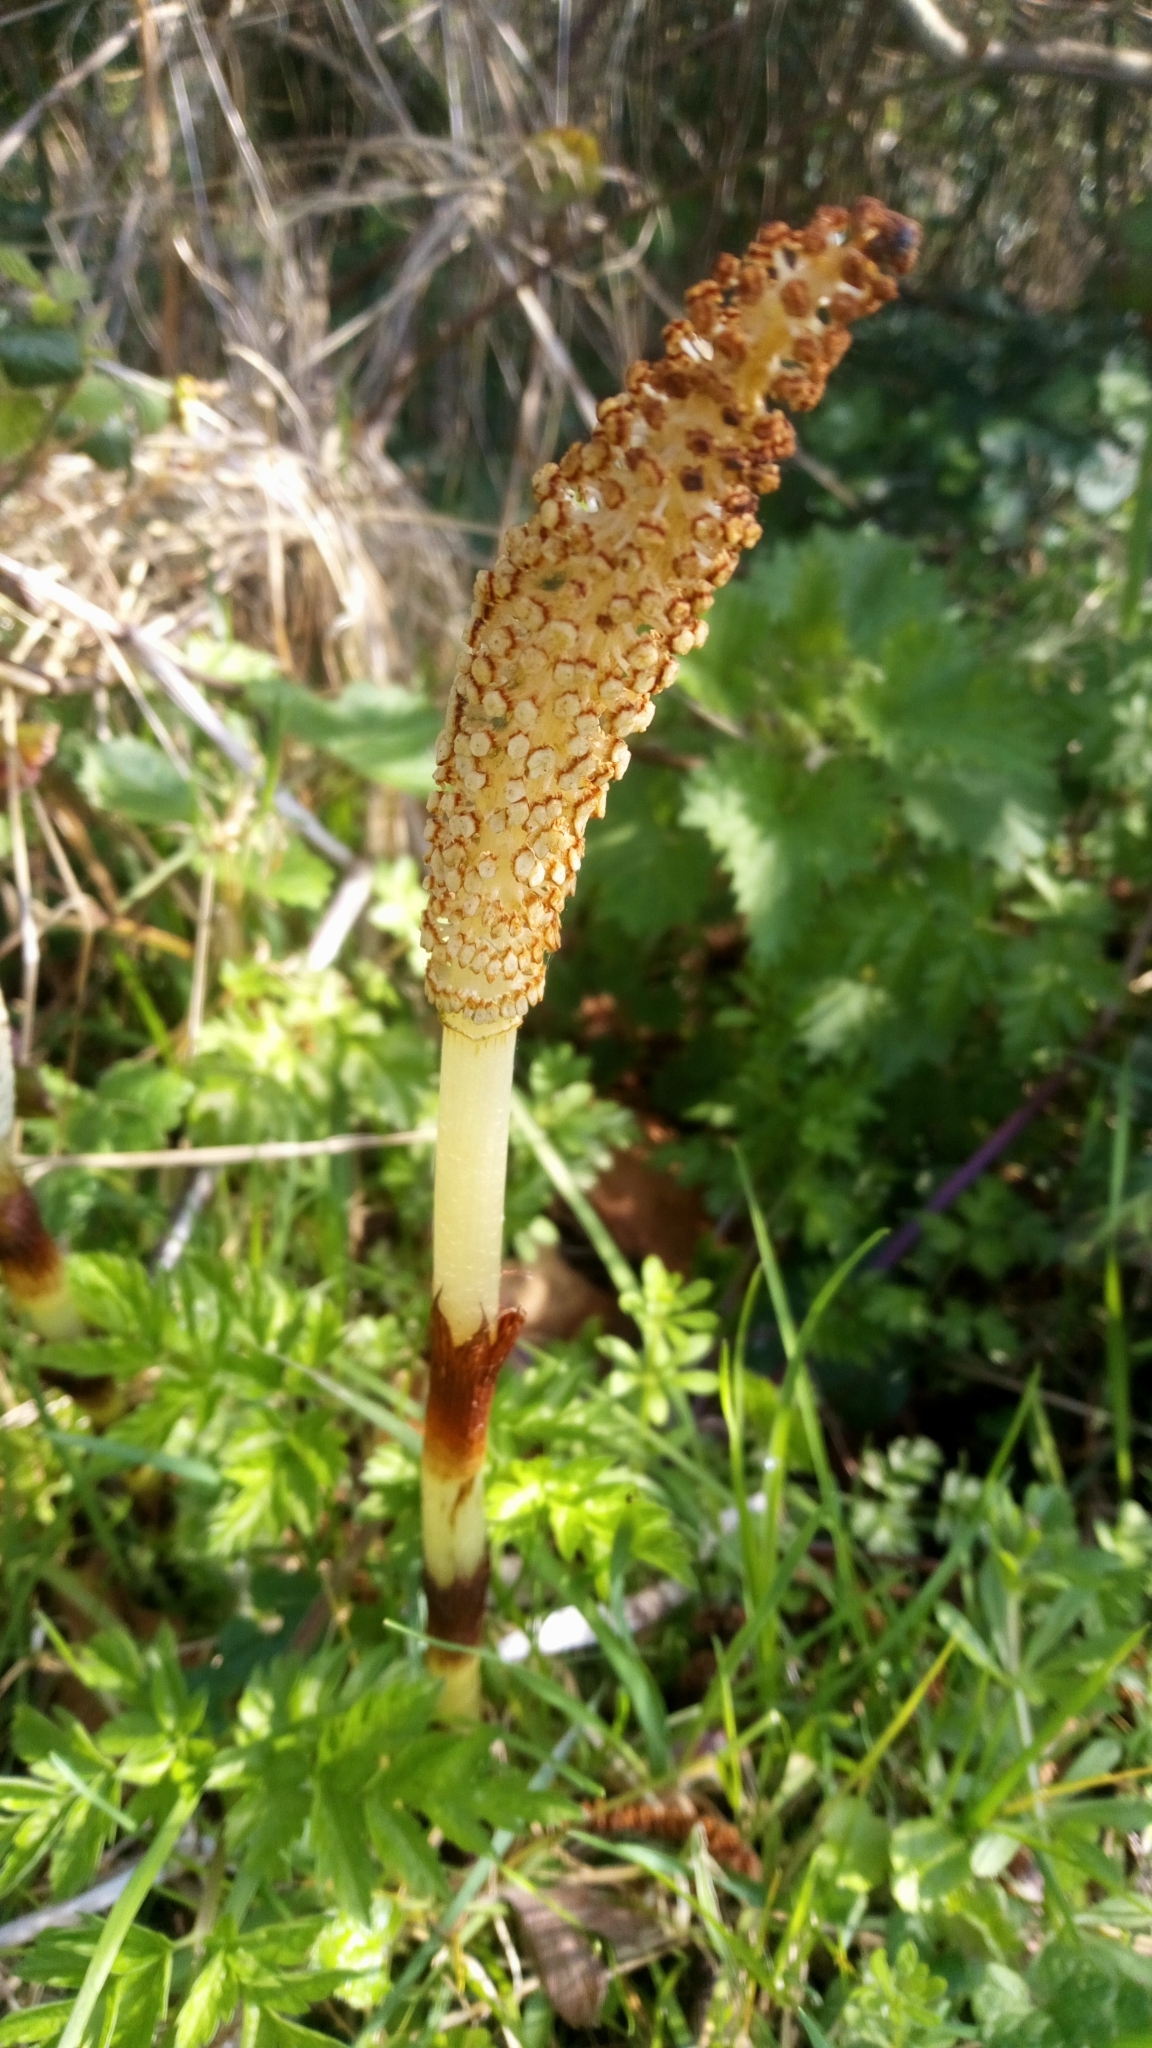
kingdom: Plantae
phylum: Tracheophyta
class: Polypodiopsida
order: Equisetales
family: Equisetaceae
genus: Equisetum
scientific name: Equisetum telmateia
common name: Great horsetail
